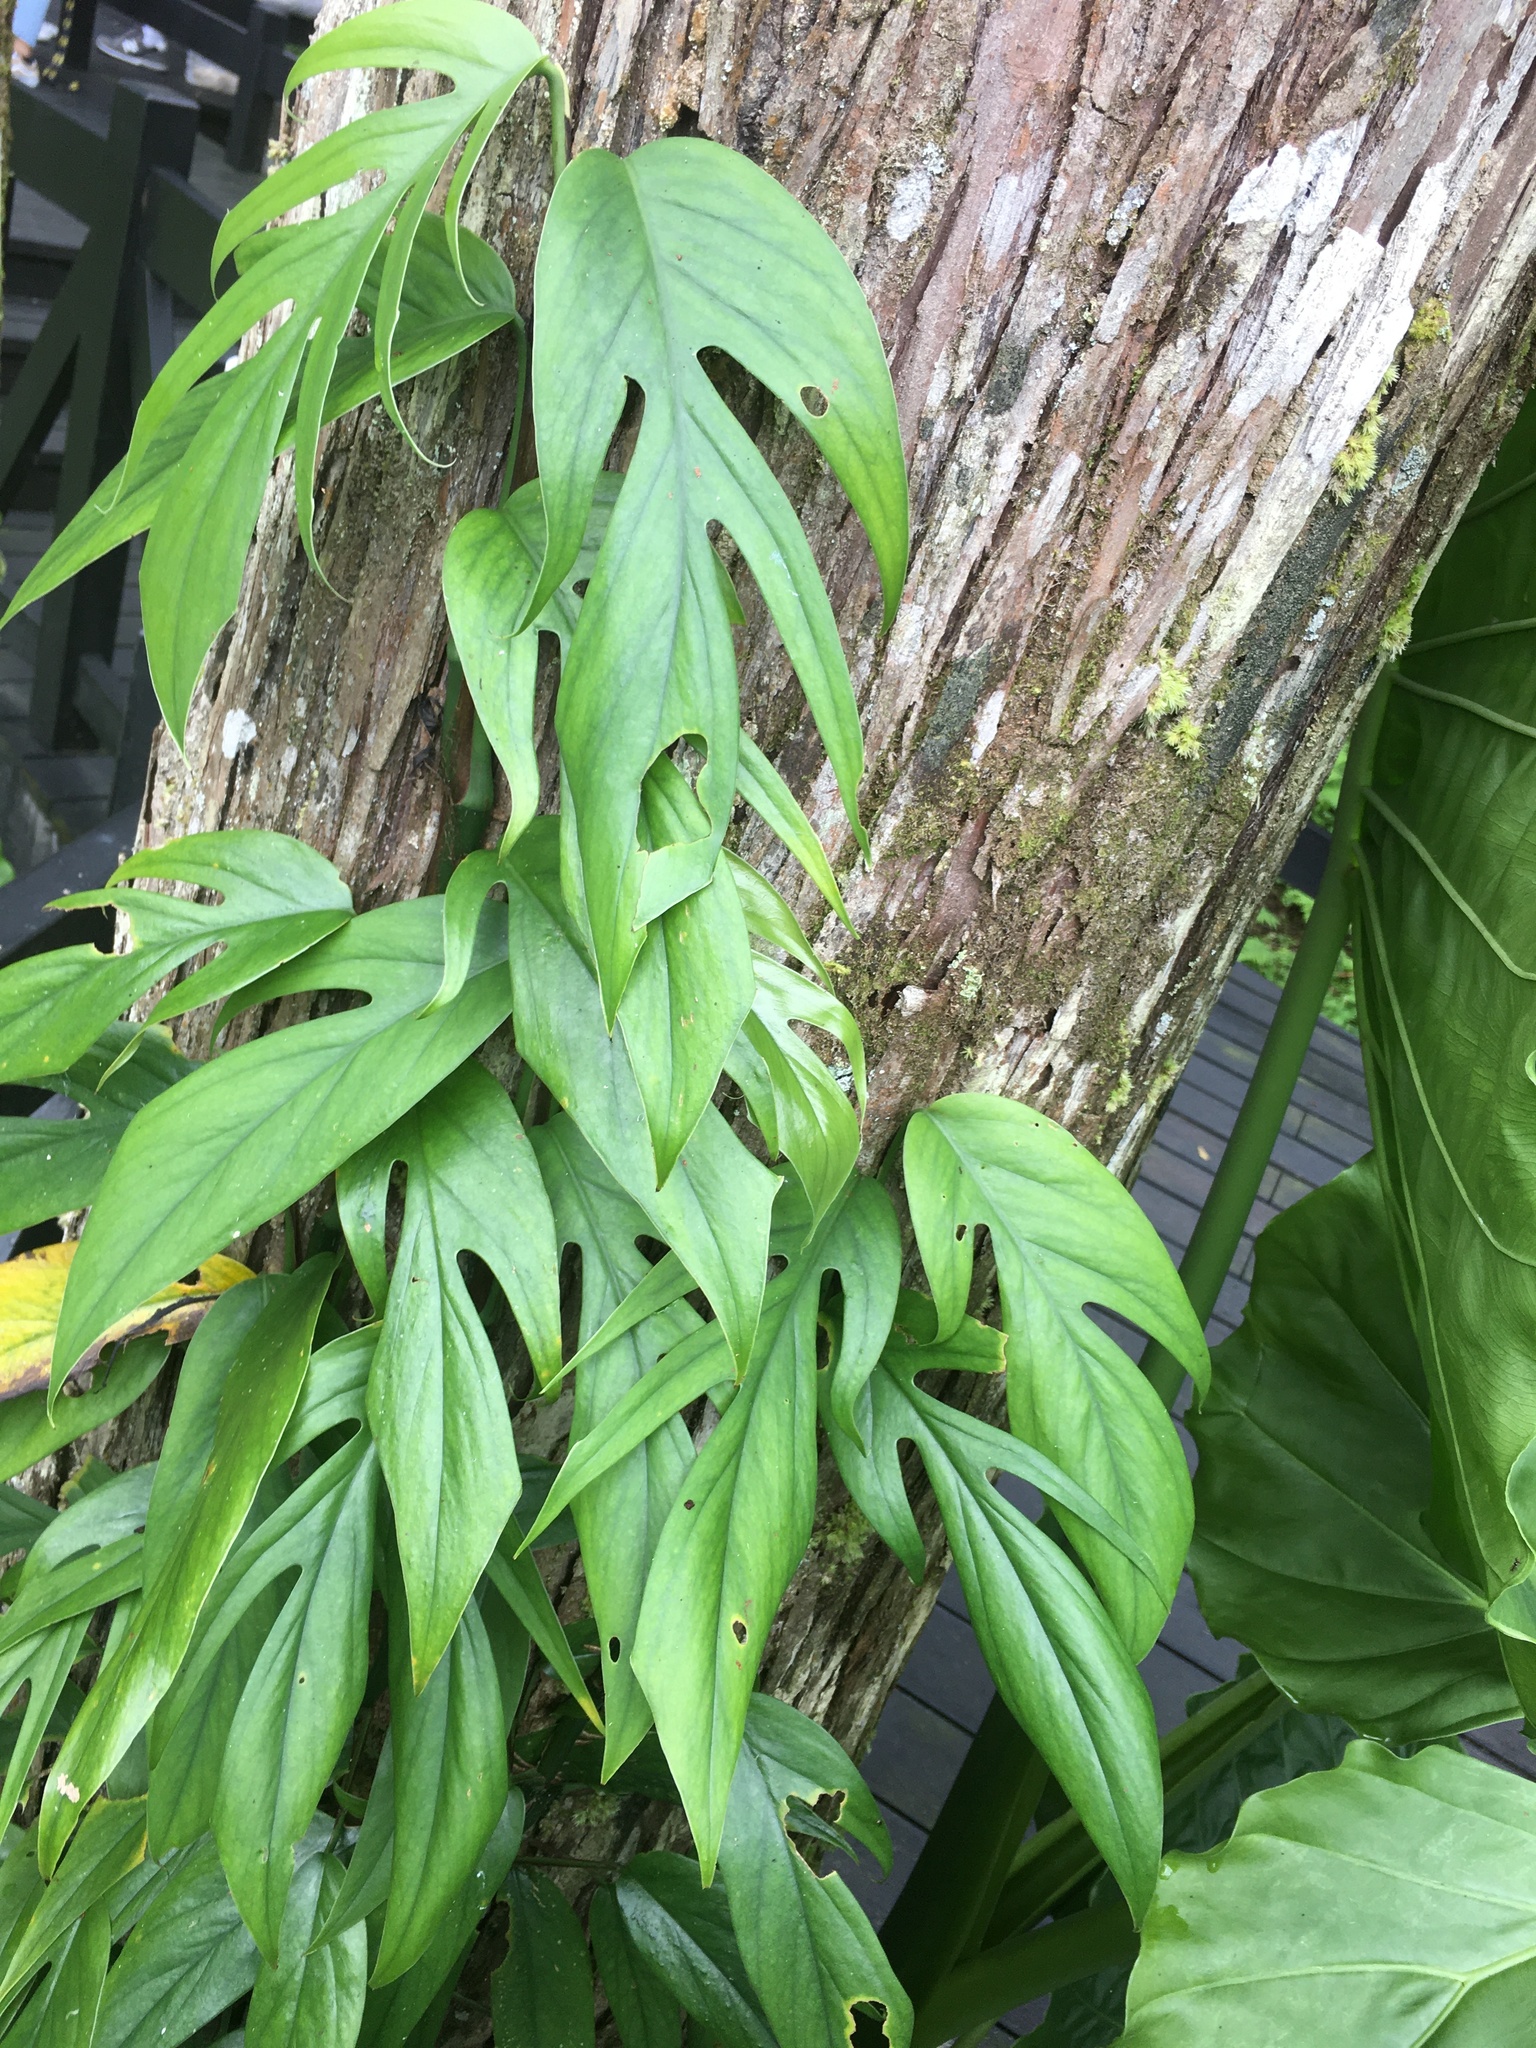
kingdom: Plantae
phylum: Tracheophyta
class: Liliopsida
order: Alismatales
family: Araceae
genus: Epipremnum
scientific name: Epipremnum pinnatum
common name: Centipede tongavine
